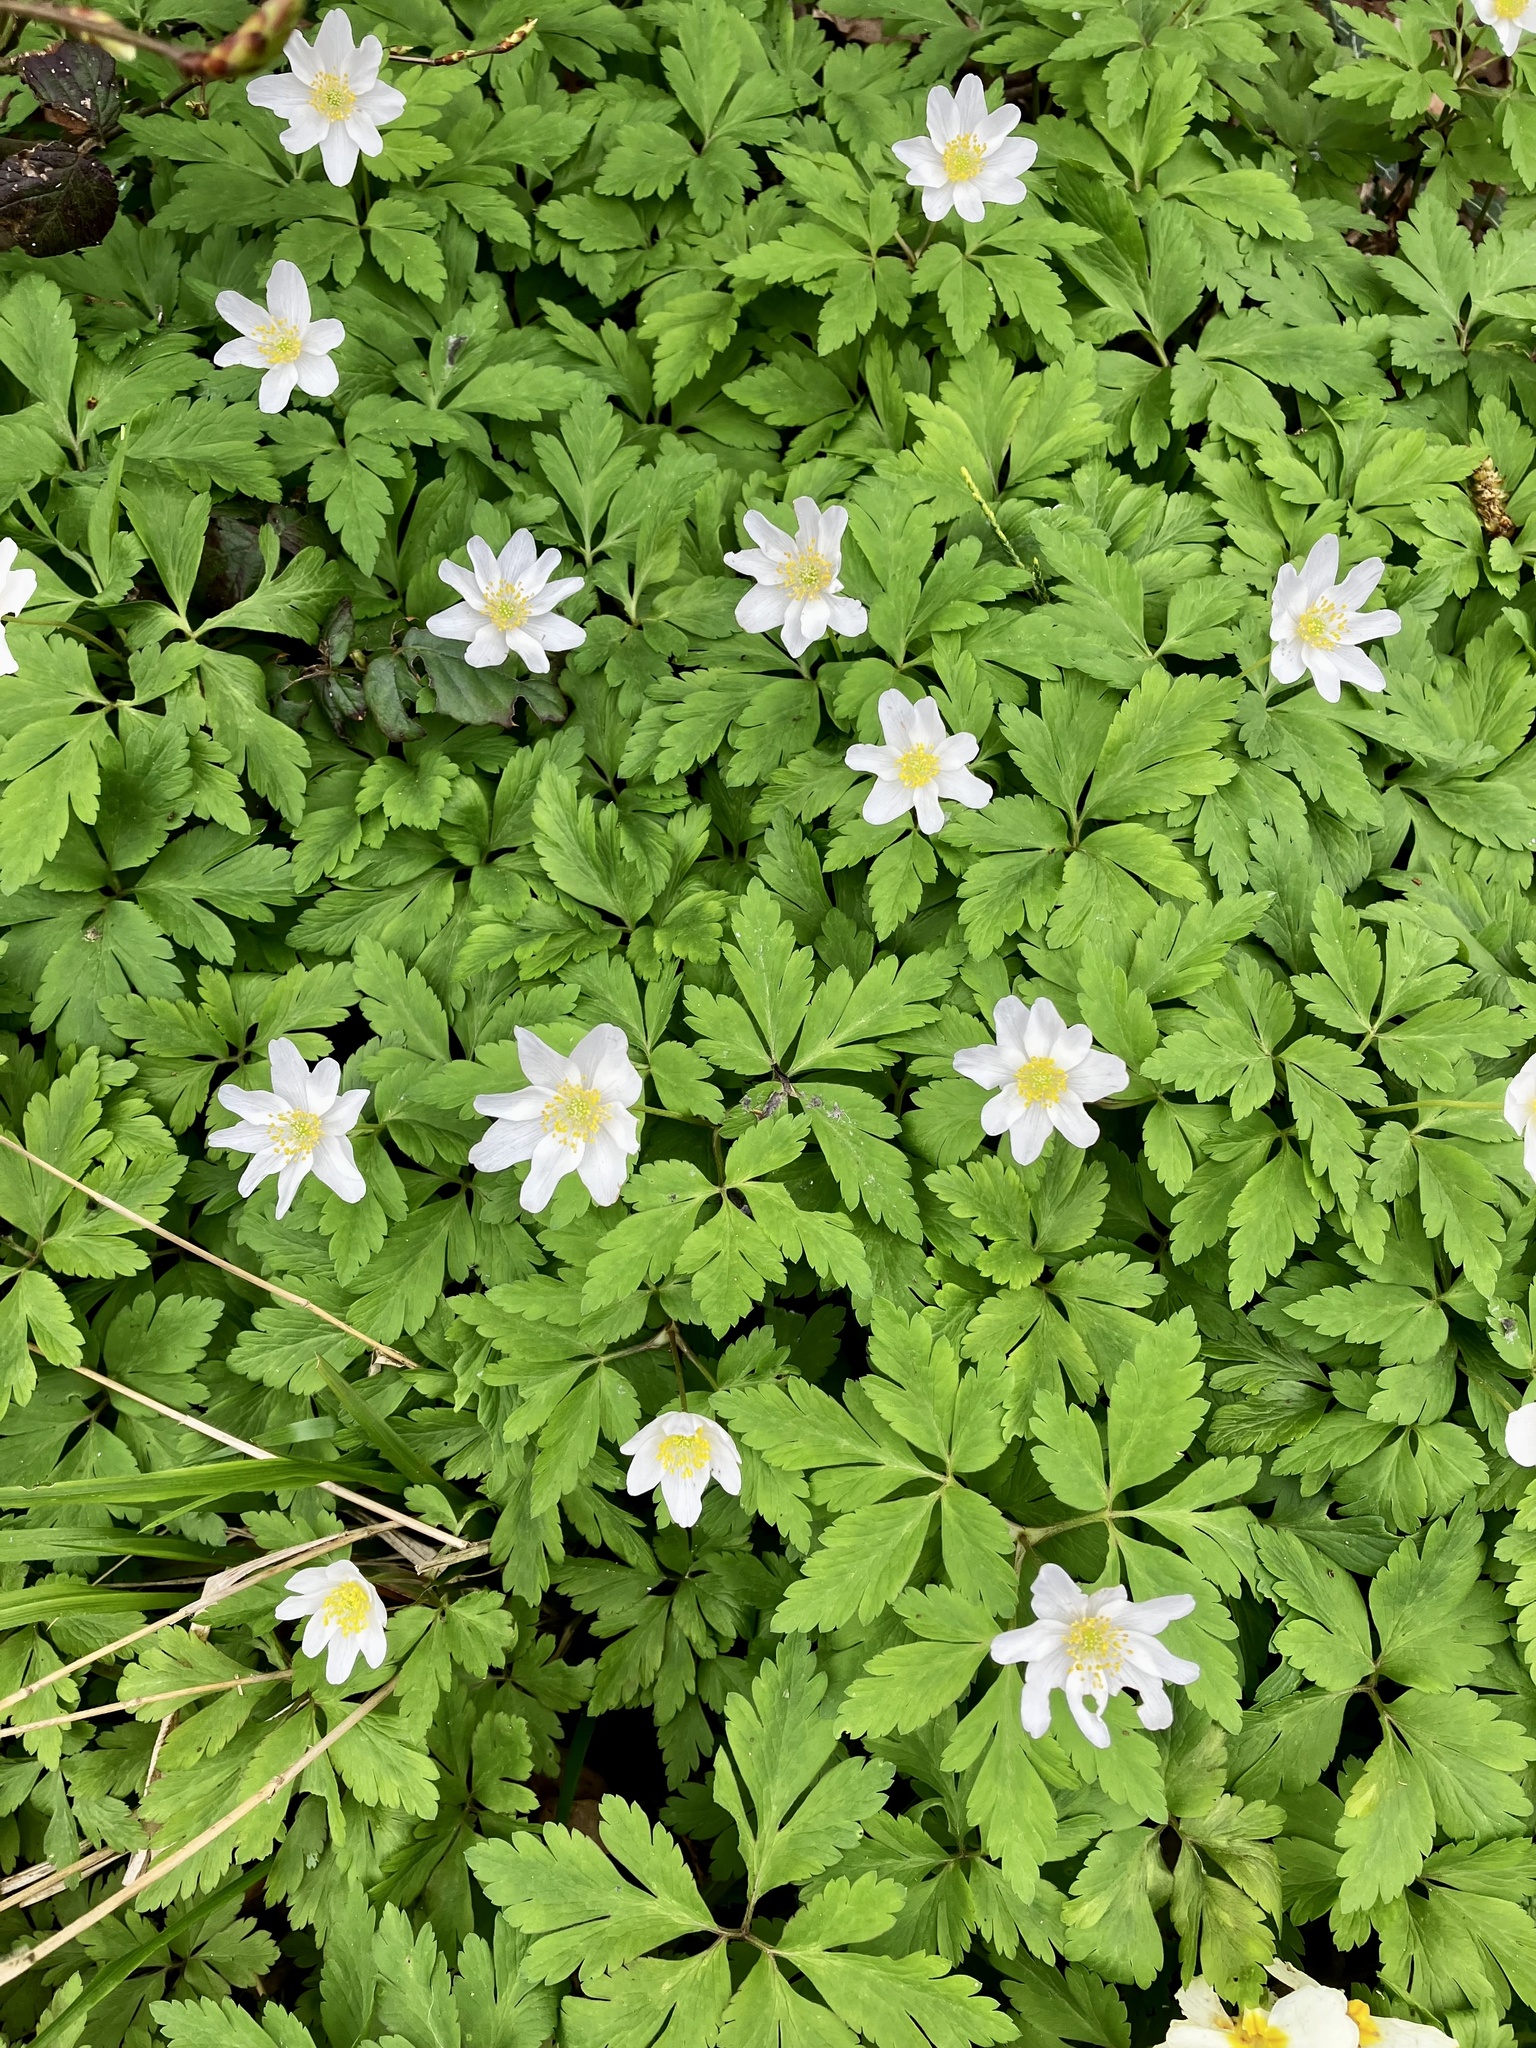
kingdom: Plantae
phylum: Tracheophyta
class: Magnoliopsida
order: Ranunculales
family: Ranunculaceae
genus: Anemone
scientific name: Anemone nemorosa
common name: Wood anemone
